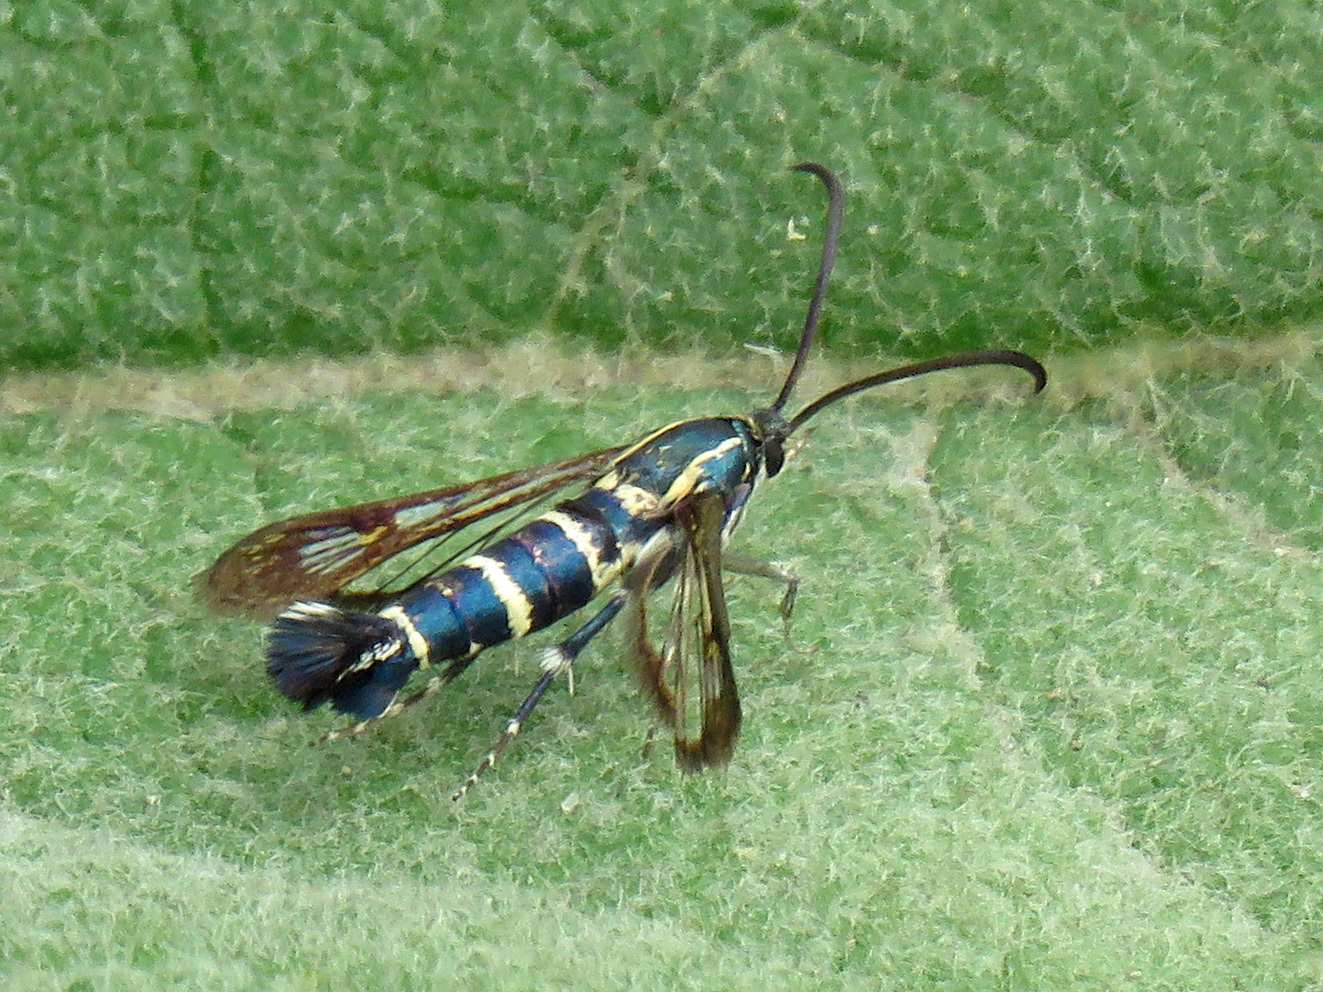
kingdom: Animalia
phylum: Arthropoda
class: Insecta
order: Lepidoptera
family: Sesiidae
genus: Carmenta
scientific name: Carmenta engelhardti
